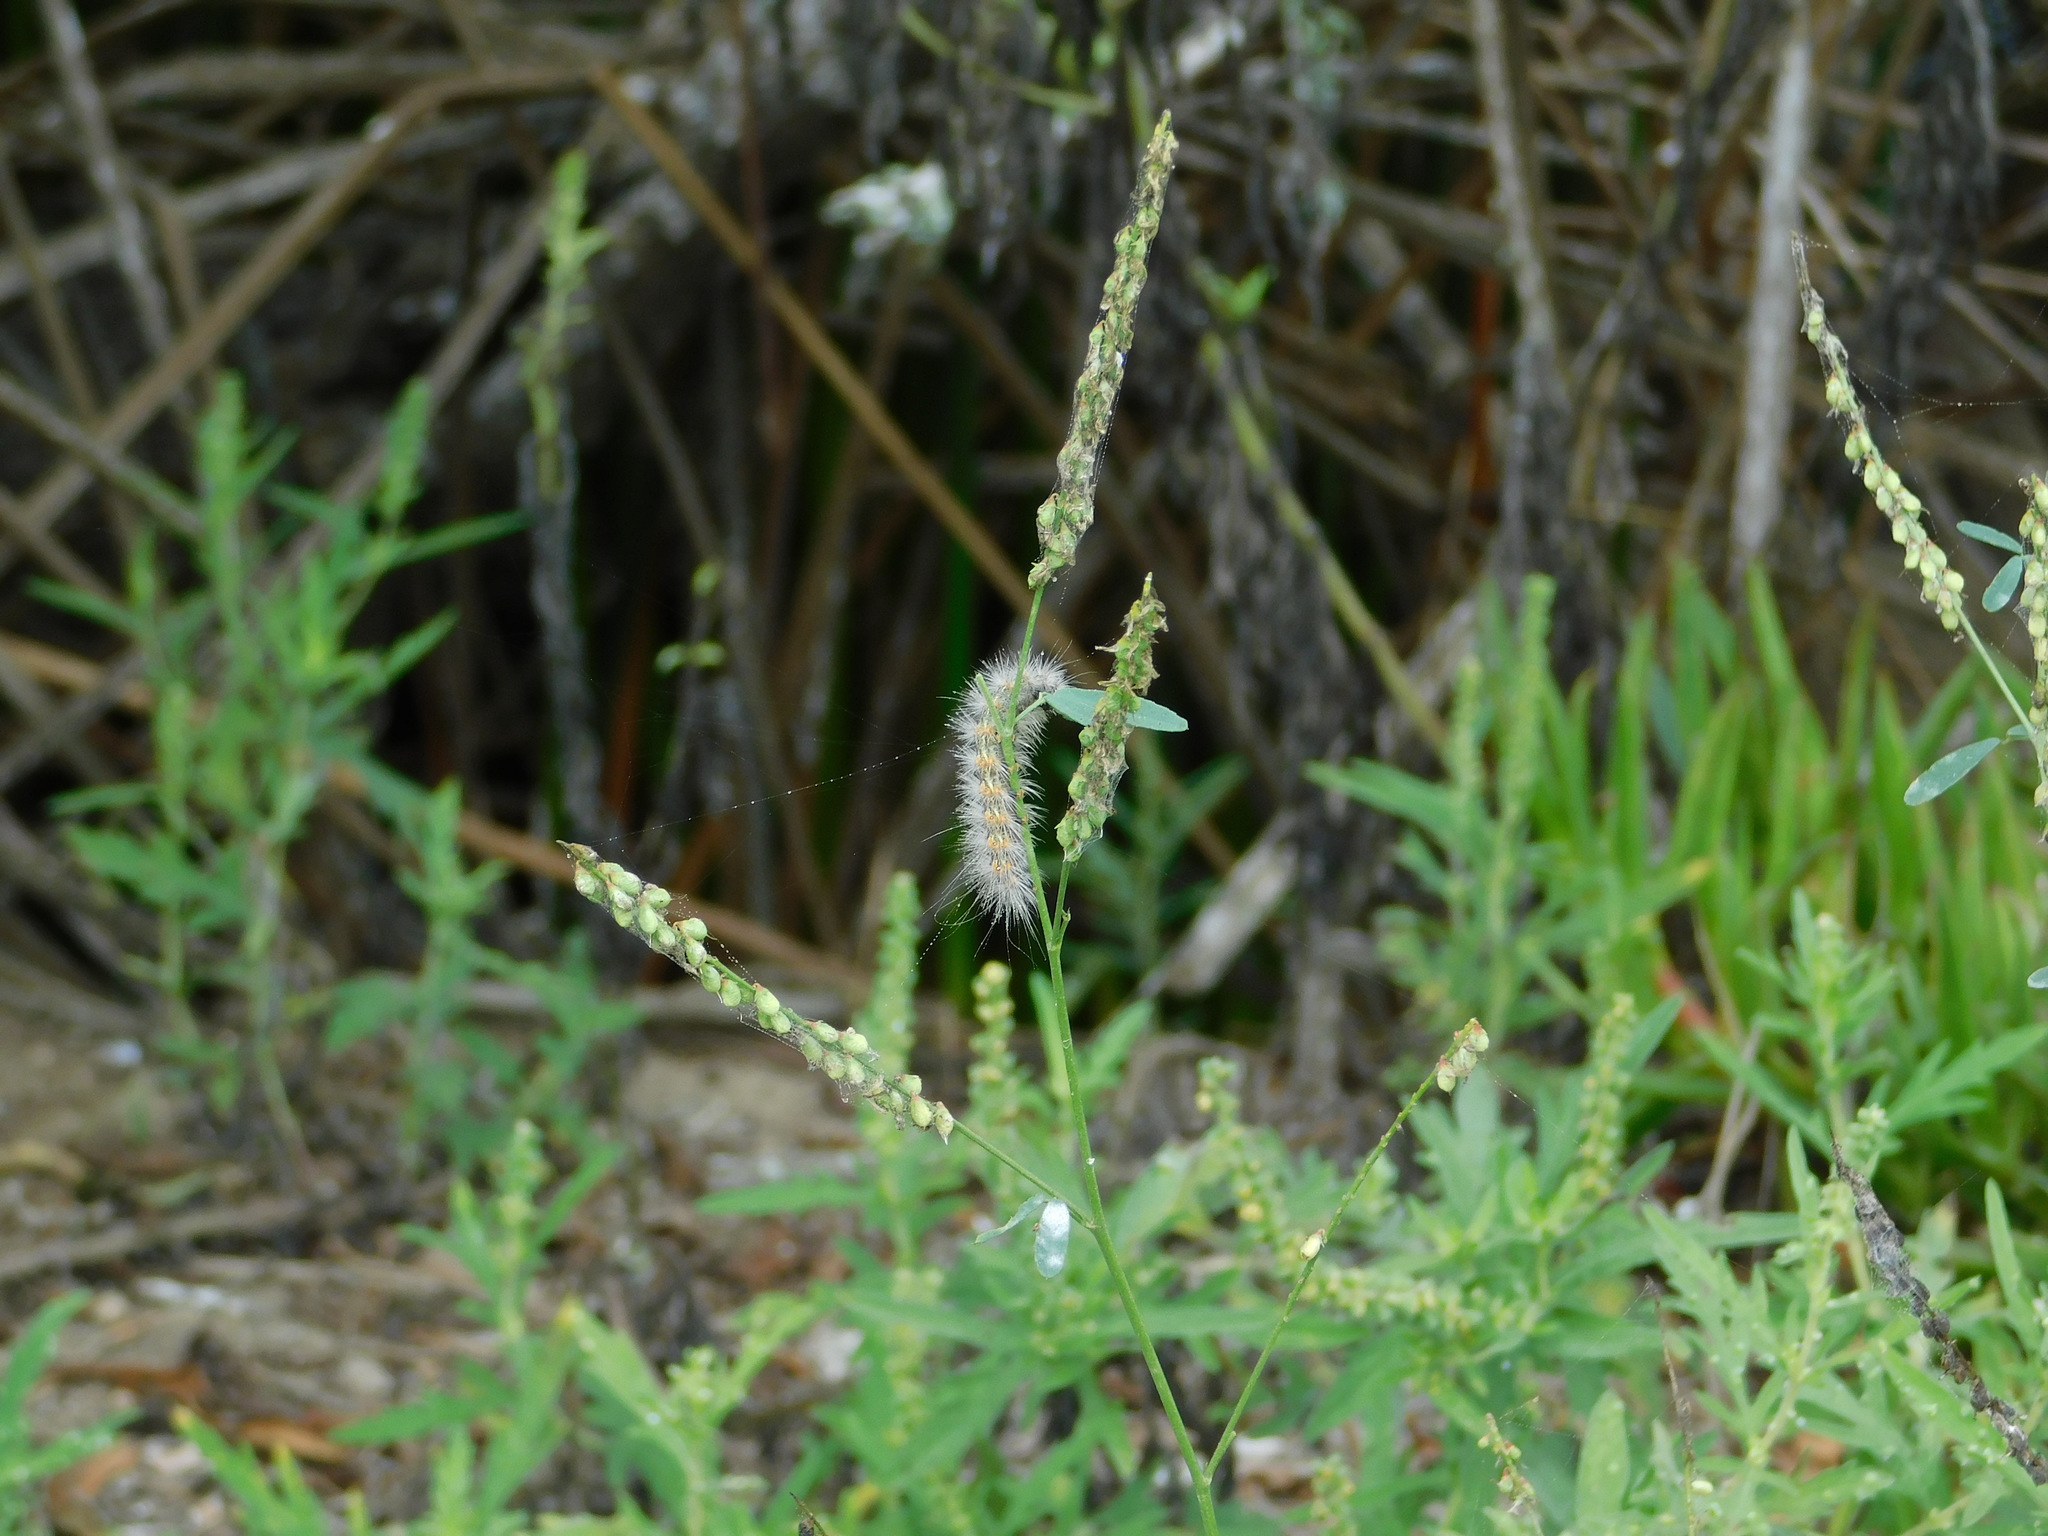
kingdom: Animalia
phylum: Arthropoda
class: Insecta
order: Lepidoptera
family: Erebidae
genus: Estigmene
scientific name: Estigmene acrea
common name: Salt marsh moth
